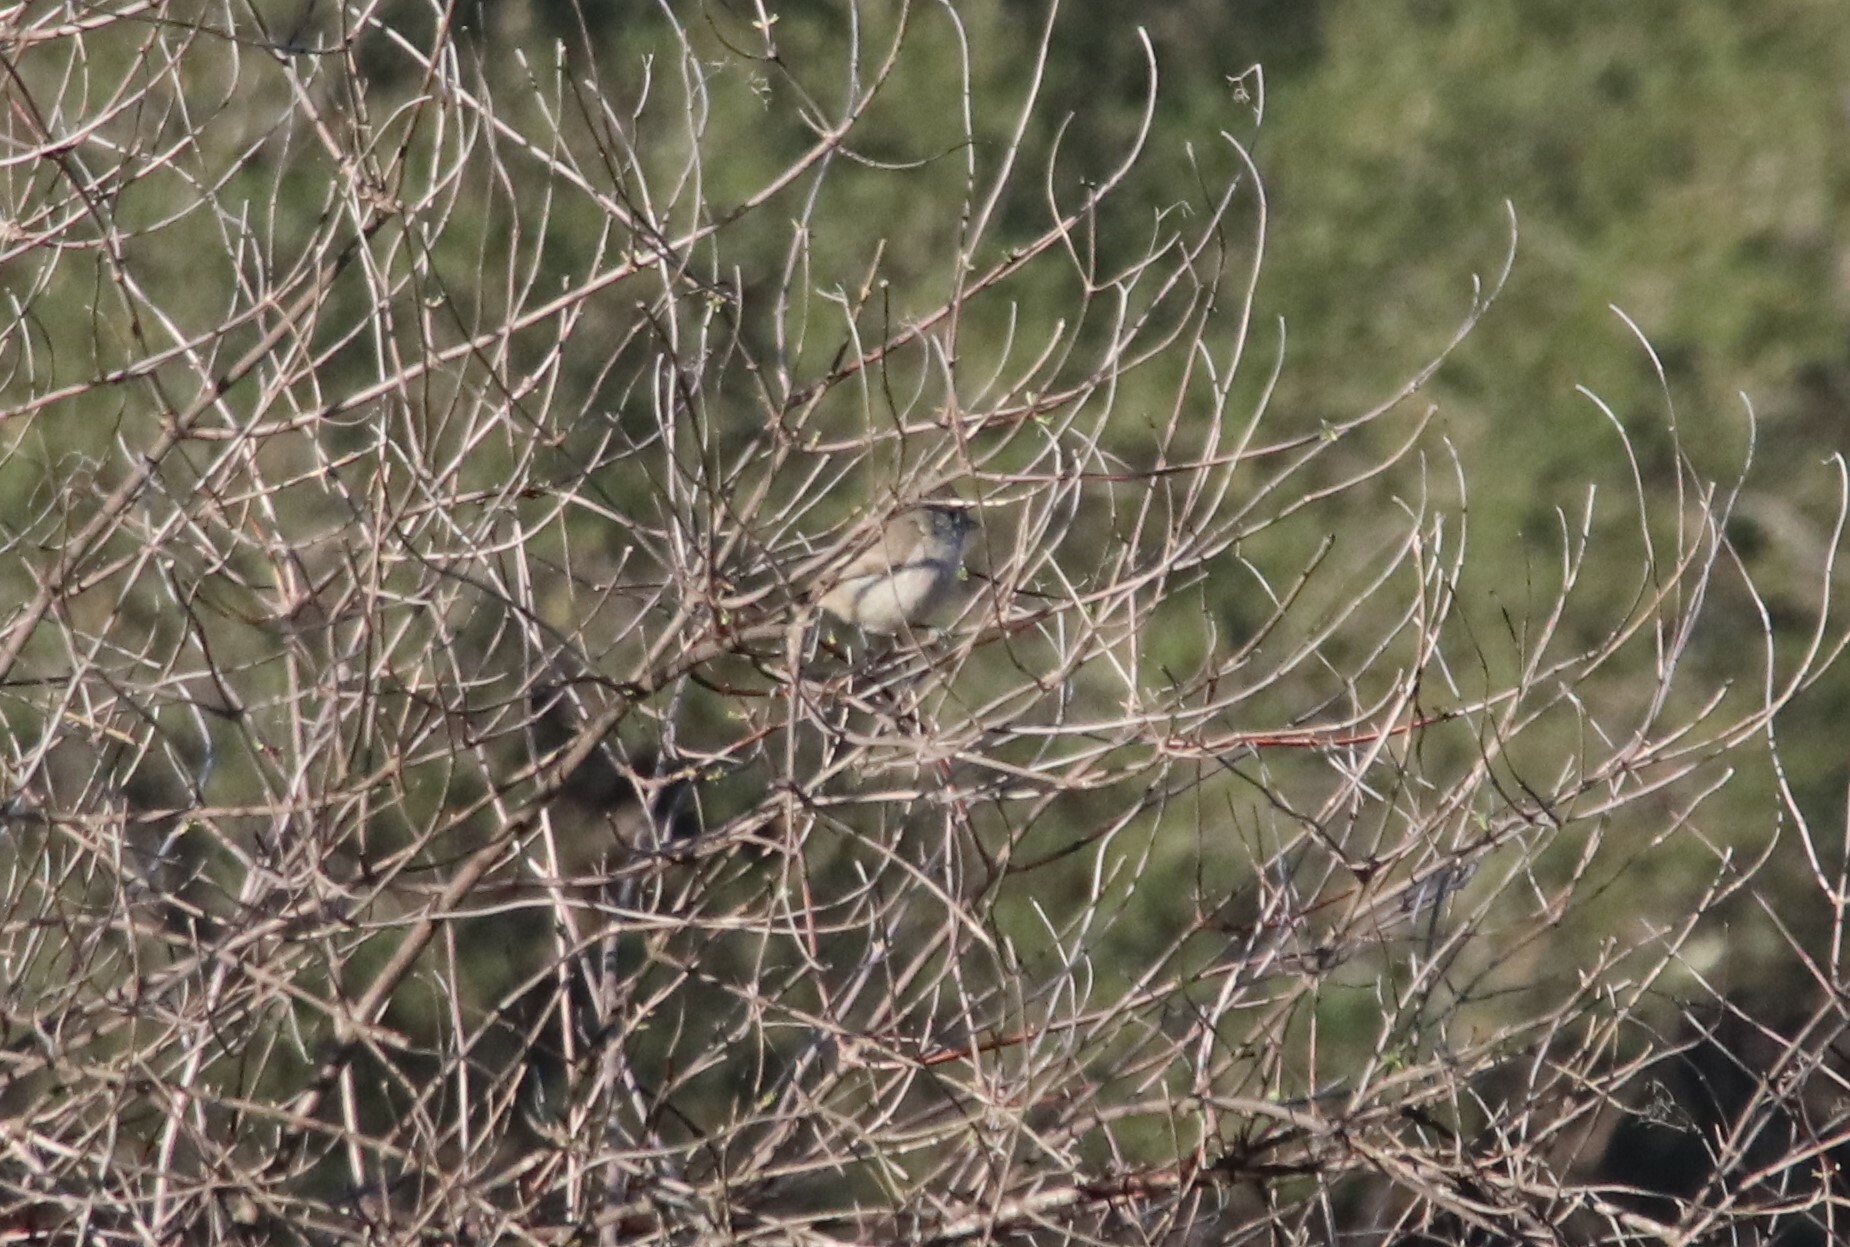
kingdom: Animalia
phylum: Chordata
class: Aves
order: Passeriformes
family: Paridae
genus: Baeolophus
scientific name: Baeolophus inornatus
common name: Oak titmouse
